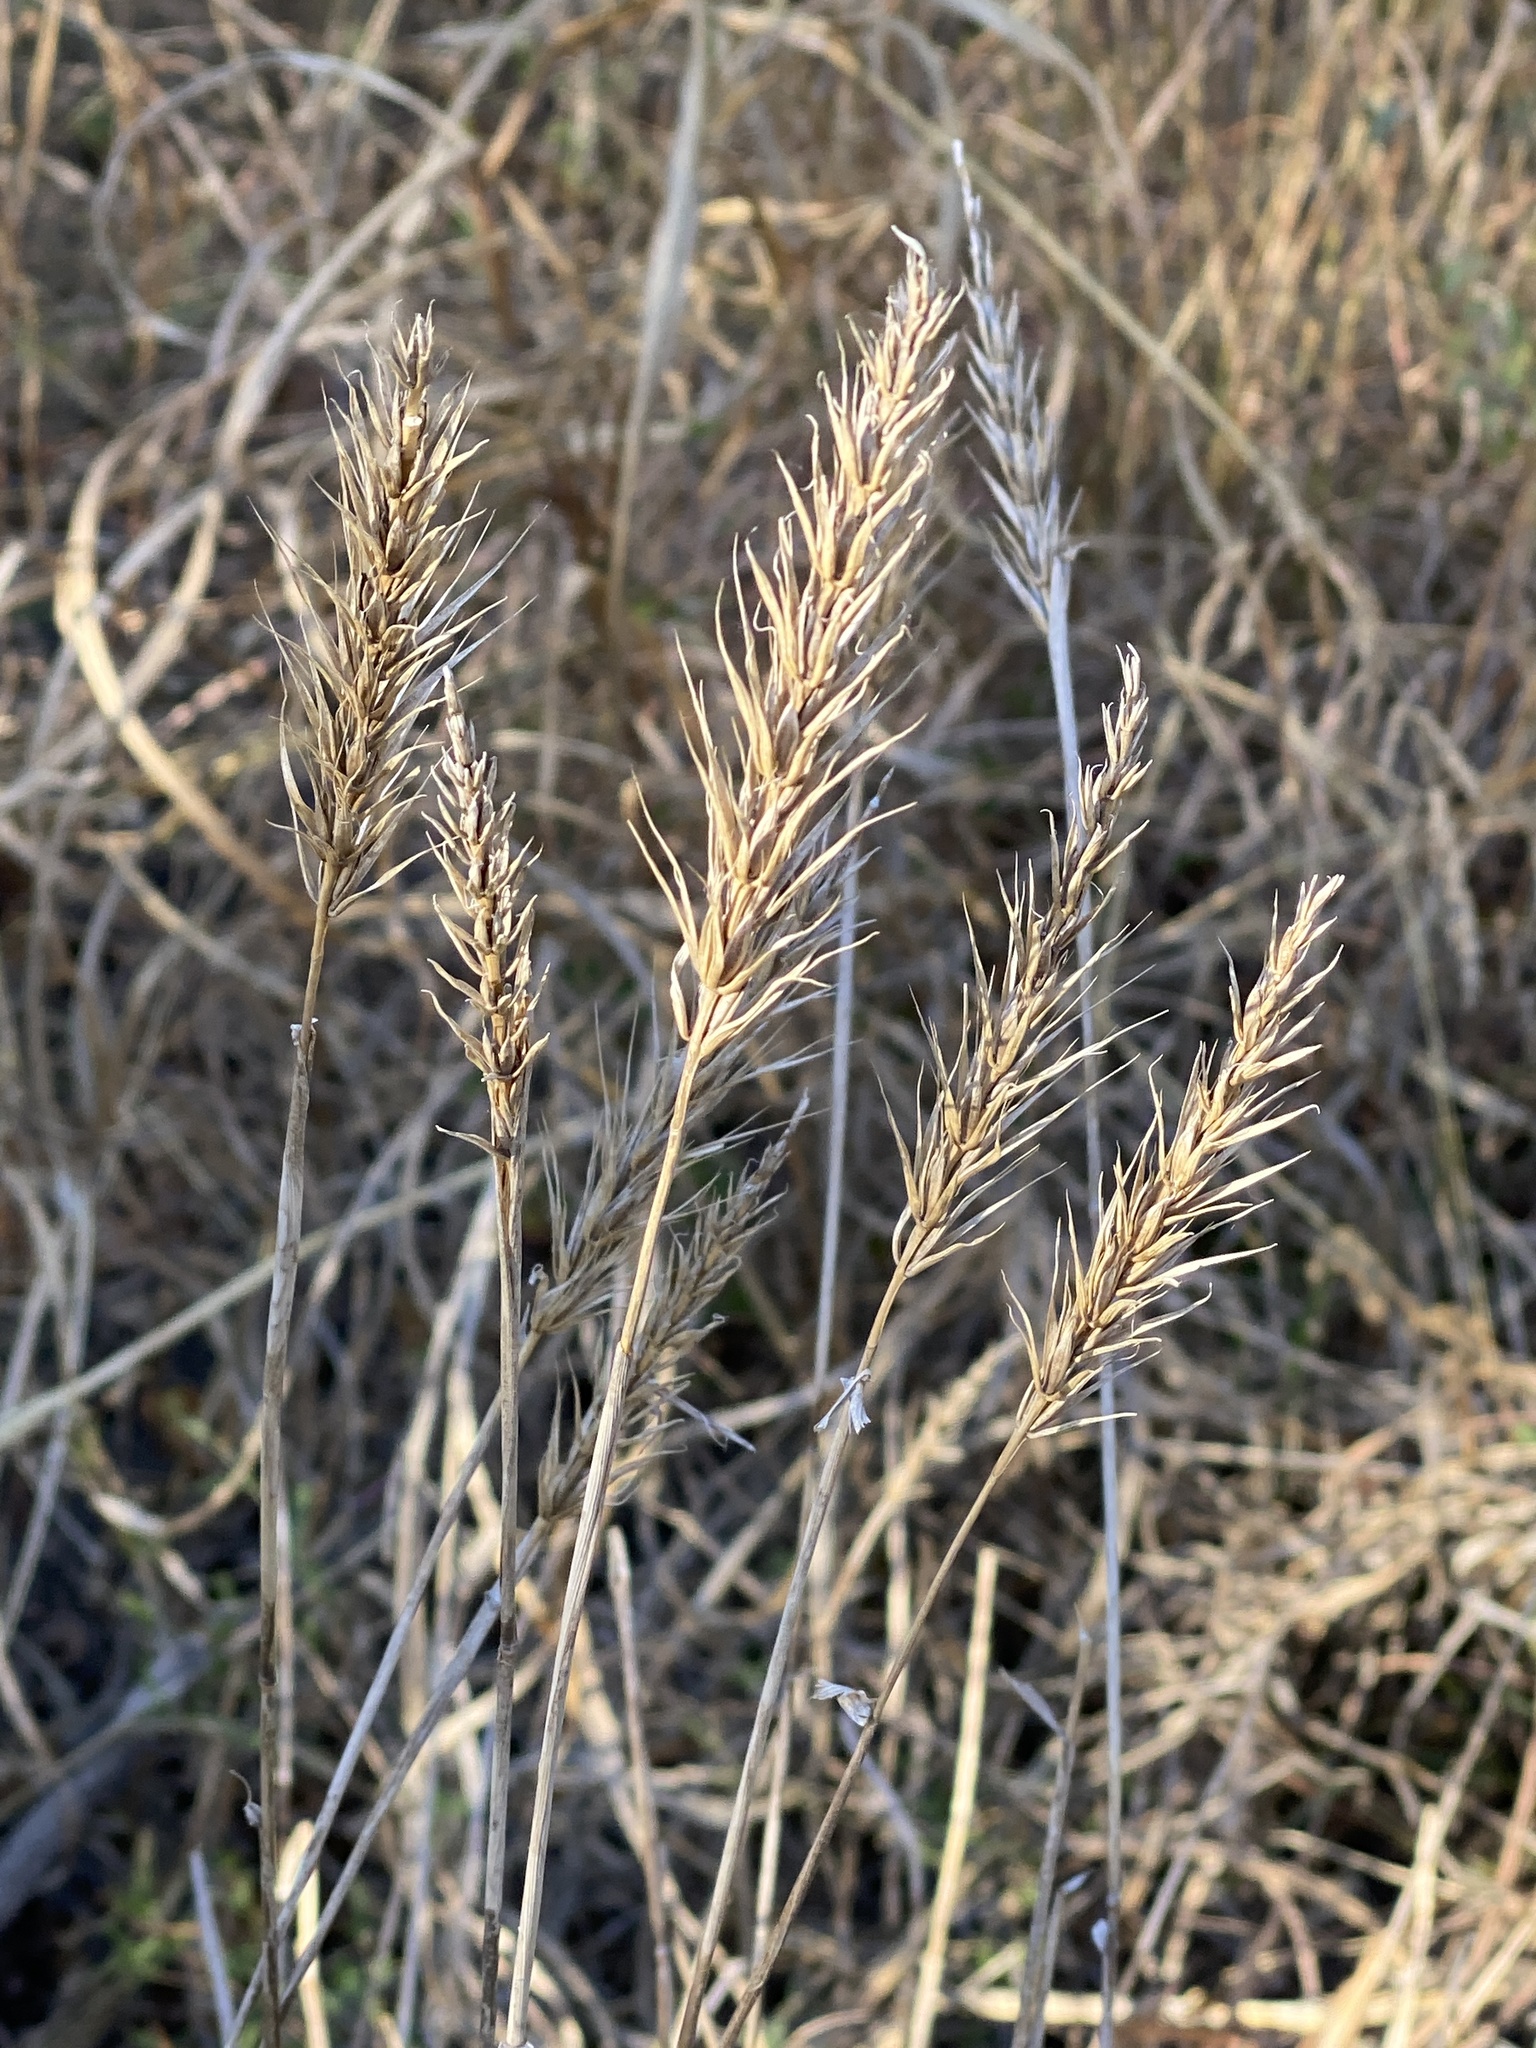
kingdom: Plantae
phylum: Tracheophyta
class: Liliopsida
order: Poales
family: Poaceae
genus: Elymus
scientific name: Elymus virginicus
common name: Common eastern wildrye
